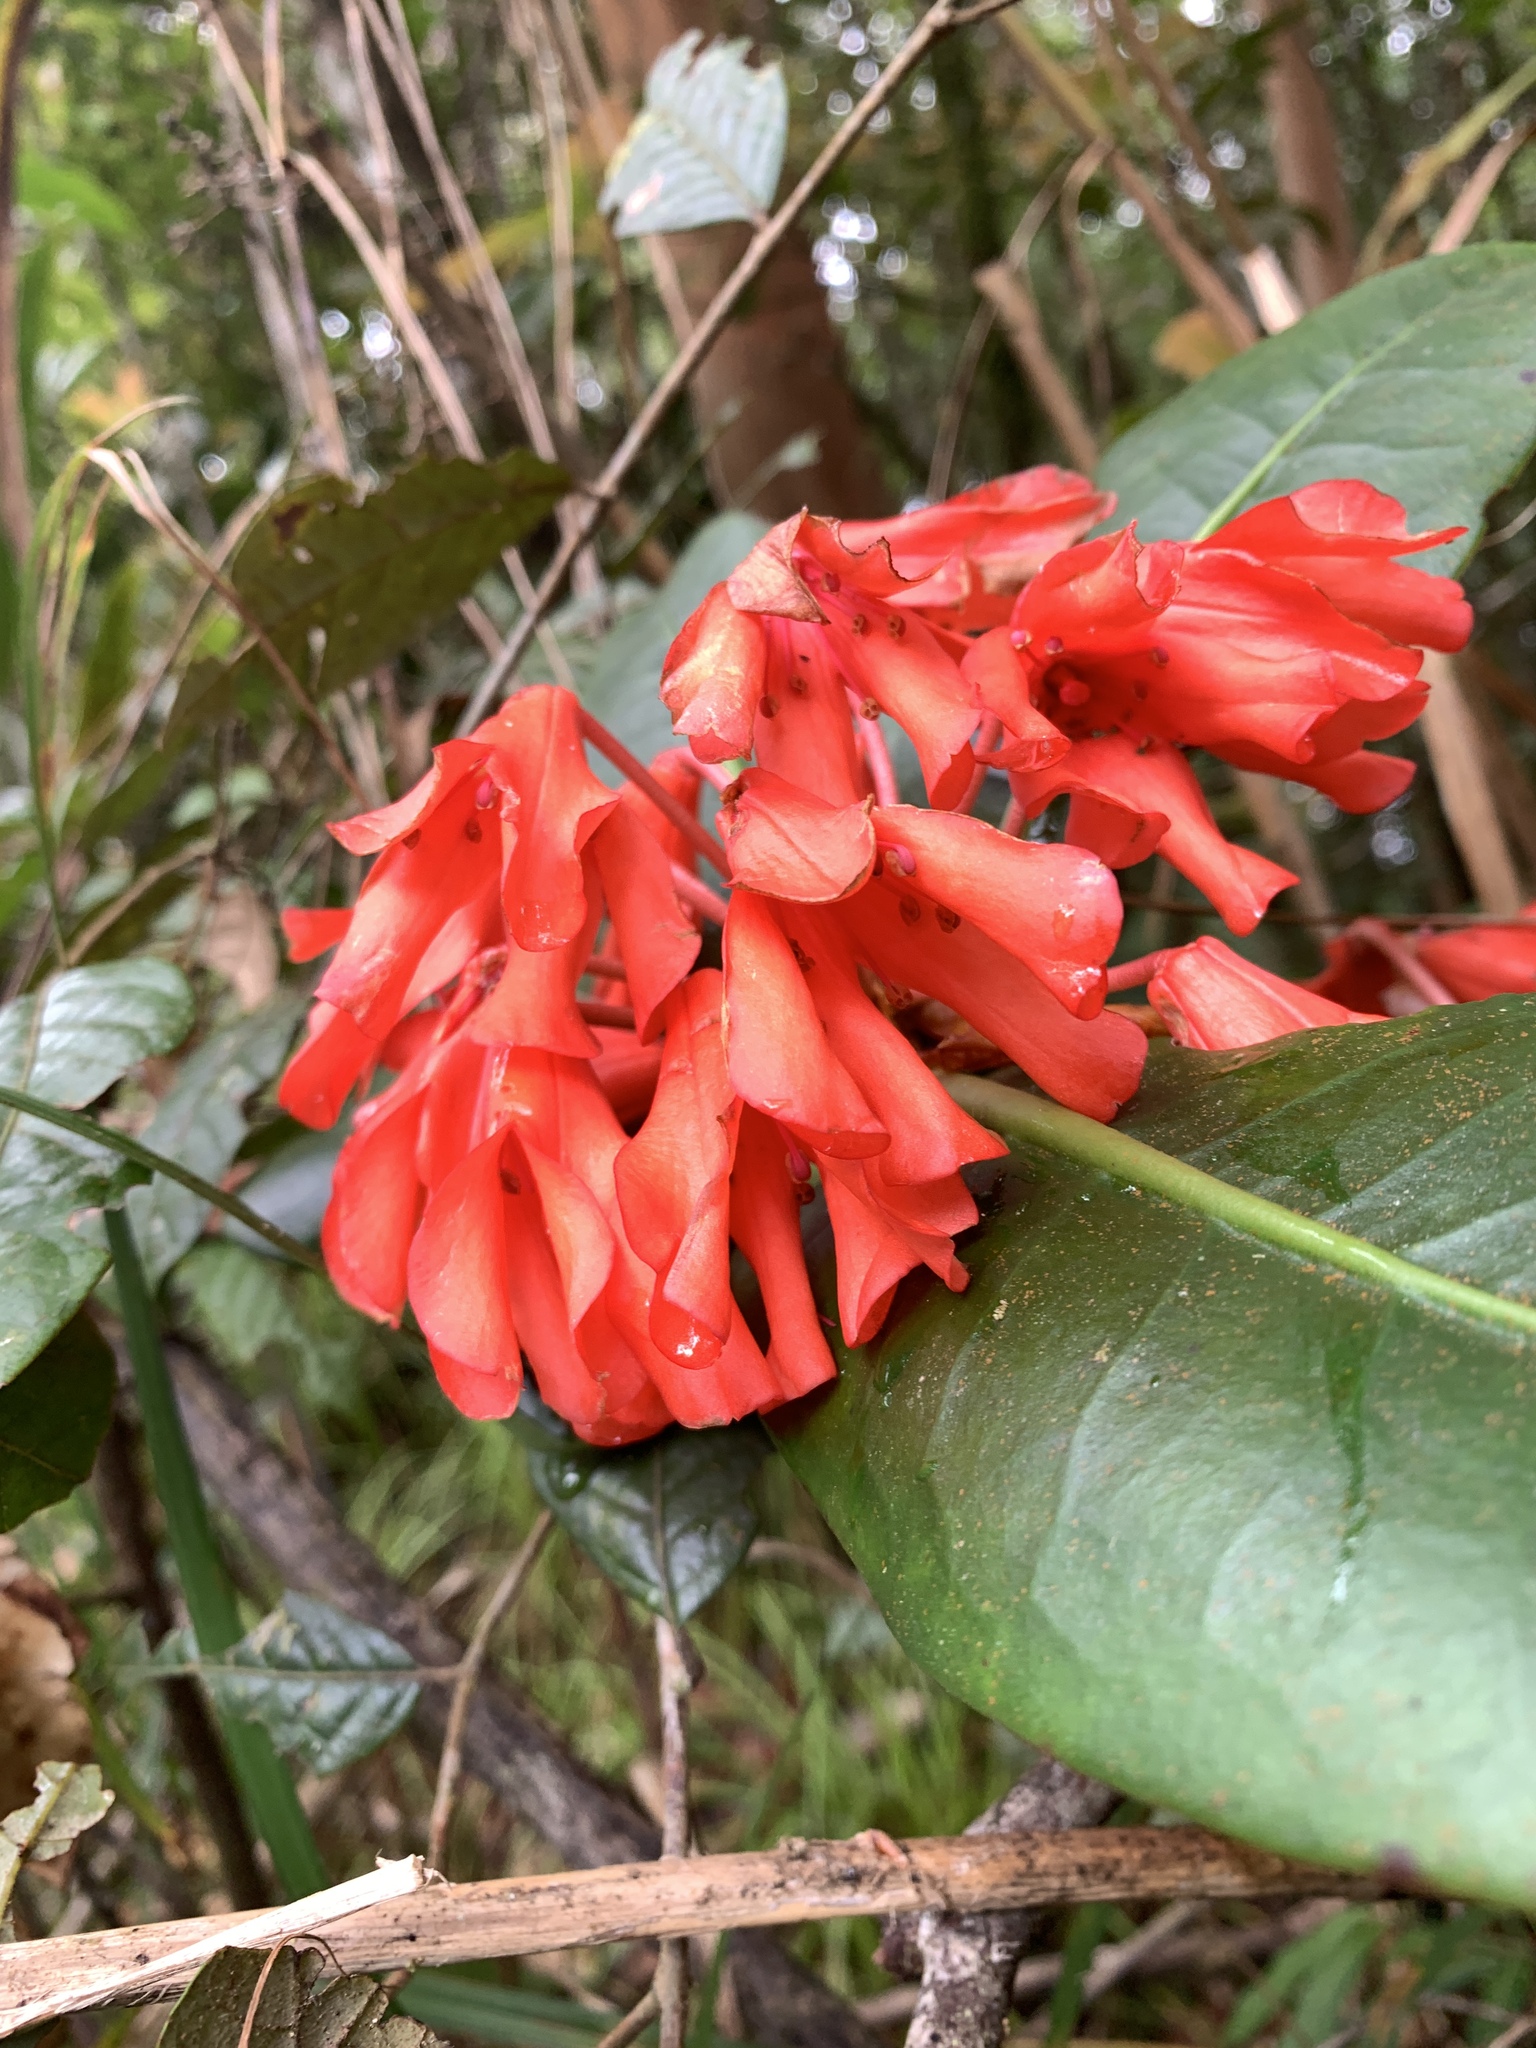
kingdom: Plantae
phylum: Tracheophyta
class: Magnoliopsida
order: Ericales
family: Ericaceae
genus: Rhododendron
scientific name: Rhododendron crassifolium
